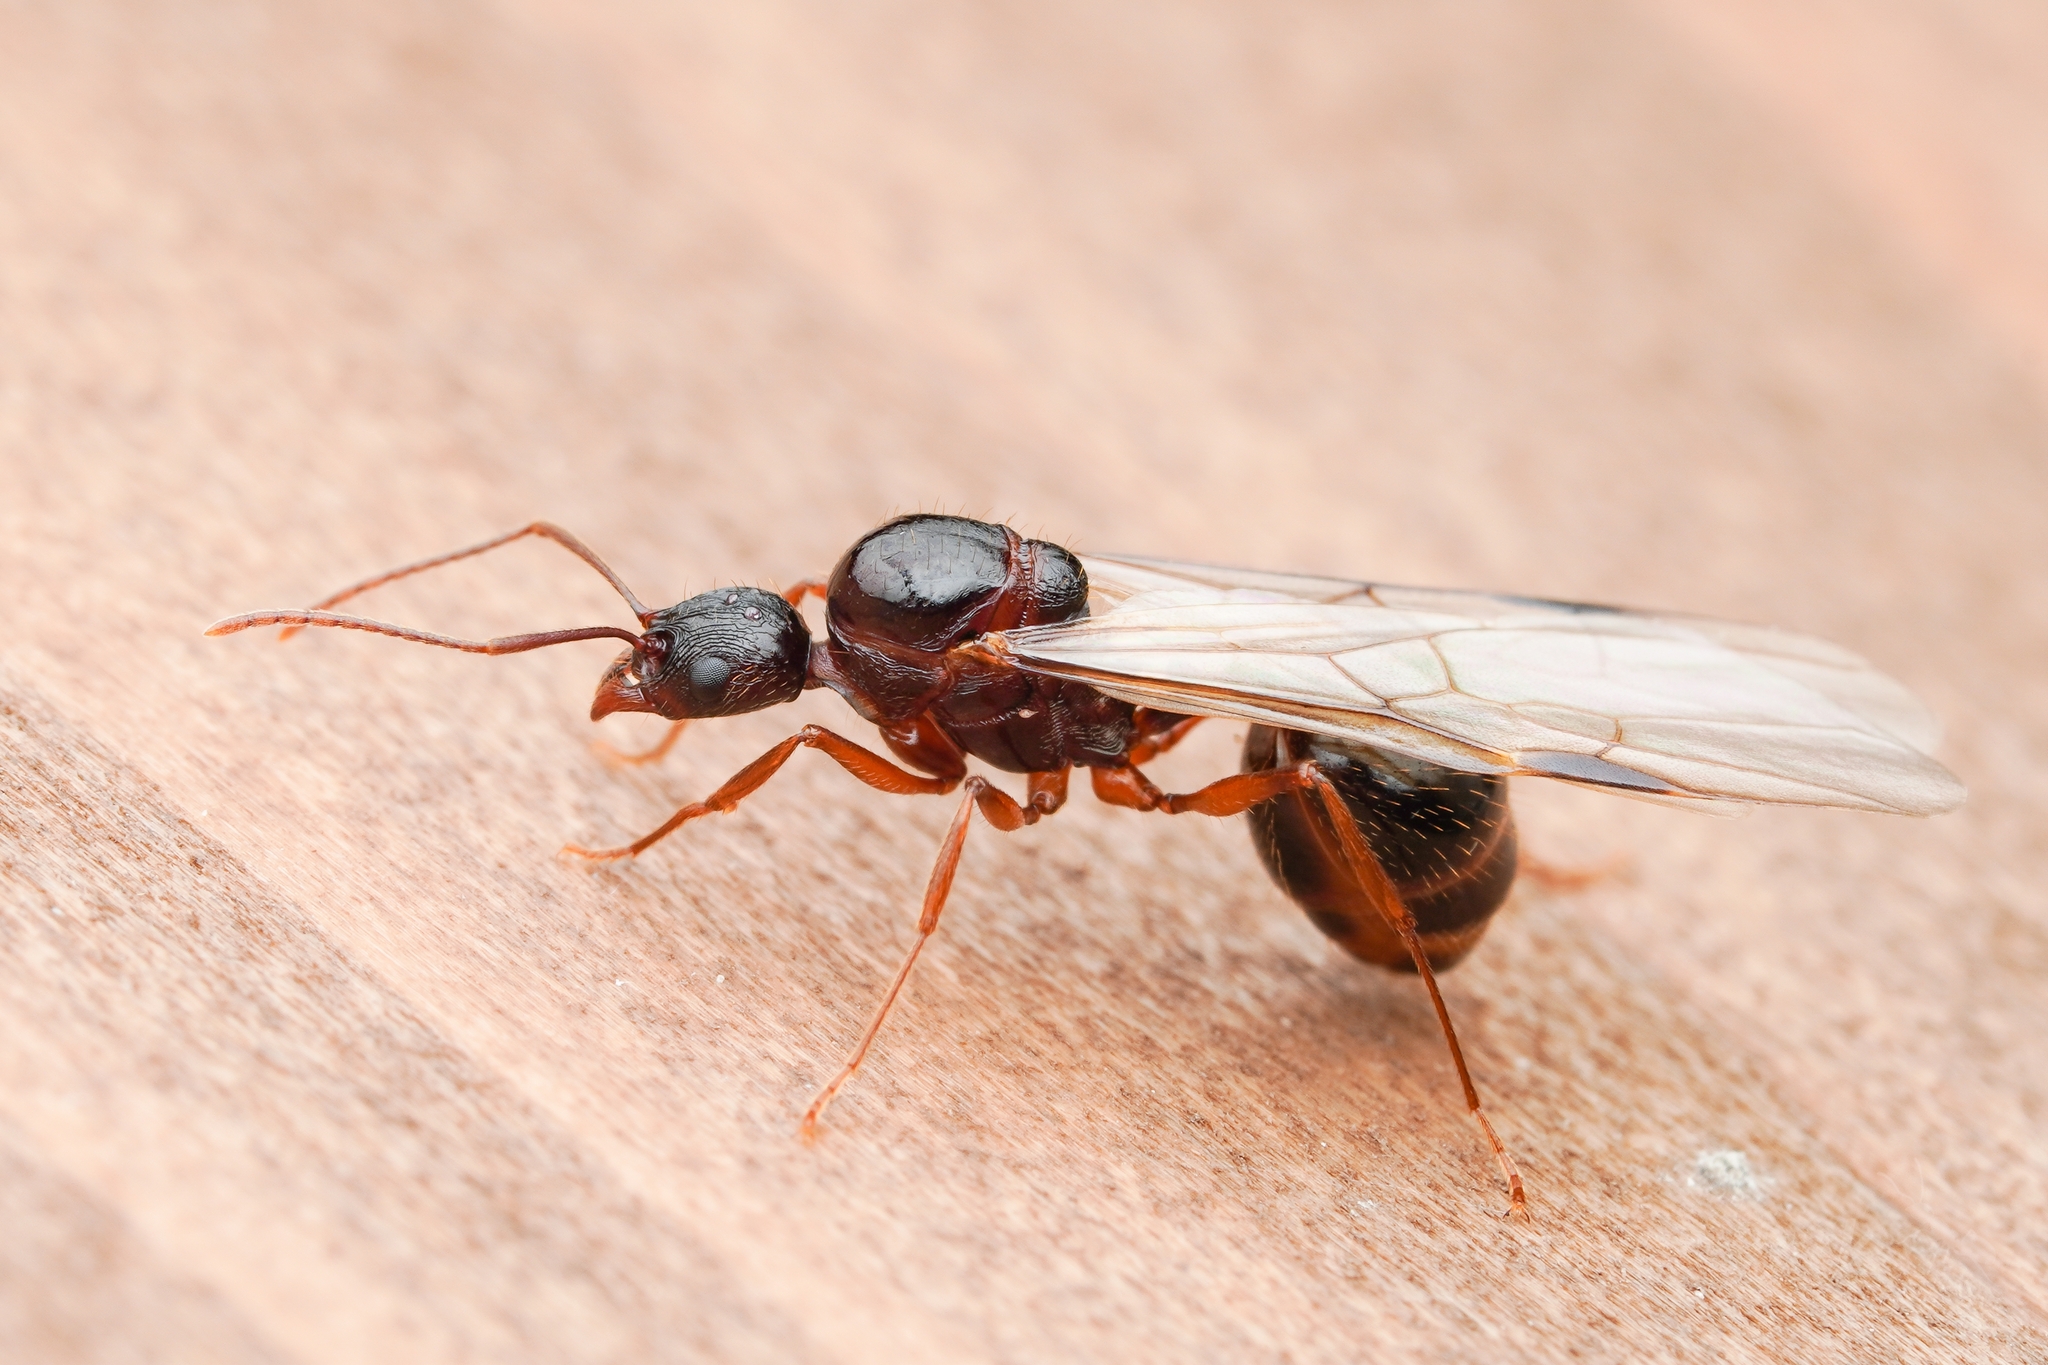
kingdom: Animalia
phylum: Arthropoda
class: Insecta
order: Hymenoptera
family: Formicidae
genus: Aphaenogaster
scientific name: Aphaenogaster famelica
